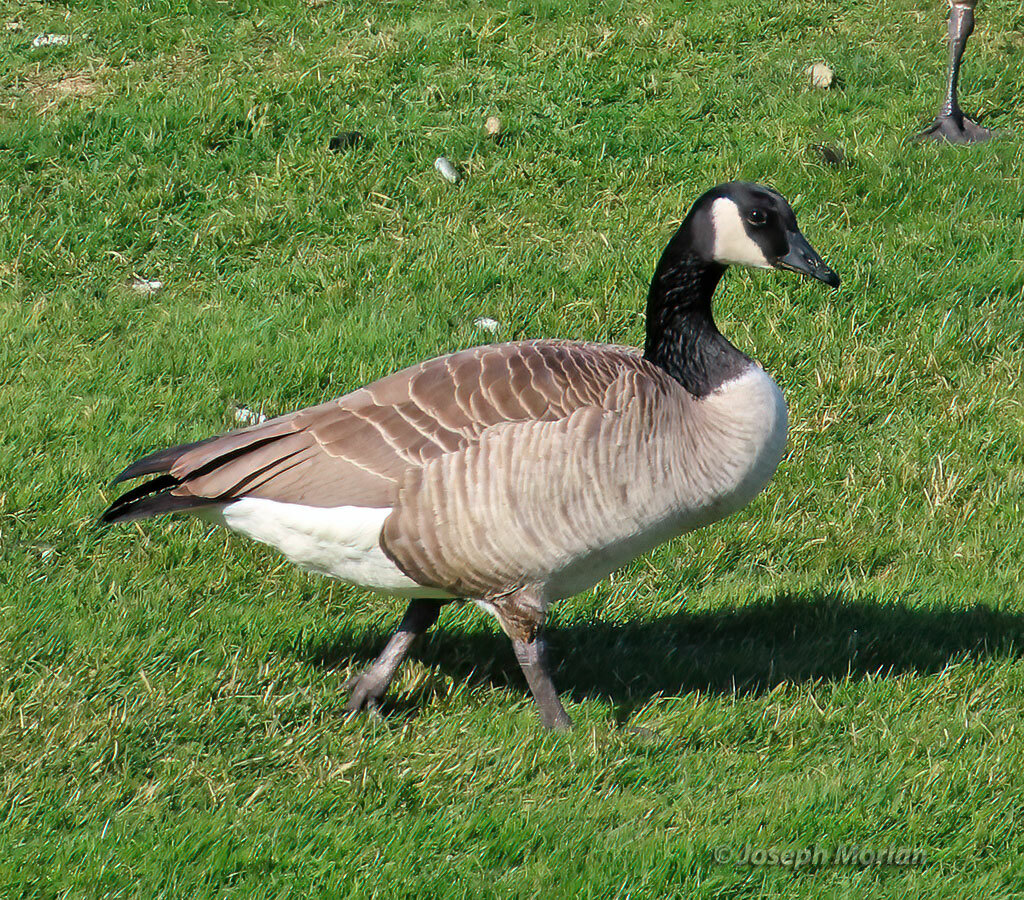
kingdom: Animalia
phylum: Chordata
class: Aves
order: Anseriformes
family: Anatidae
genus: Branta
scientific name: Branta canadensis
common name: Canada goose
